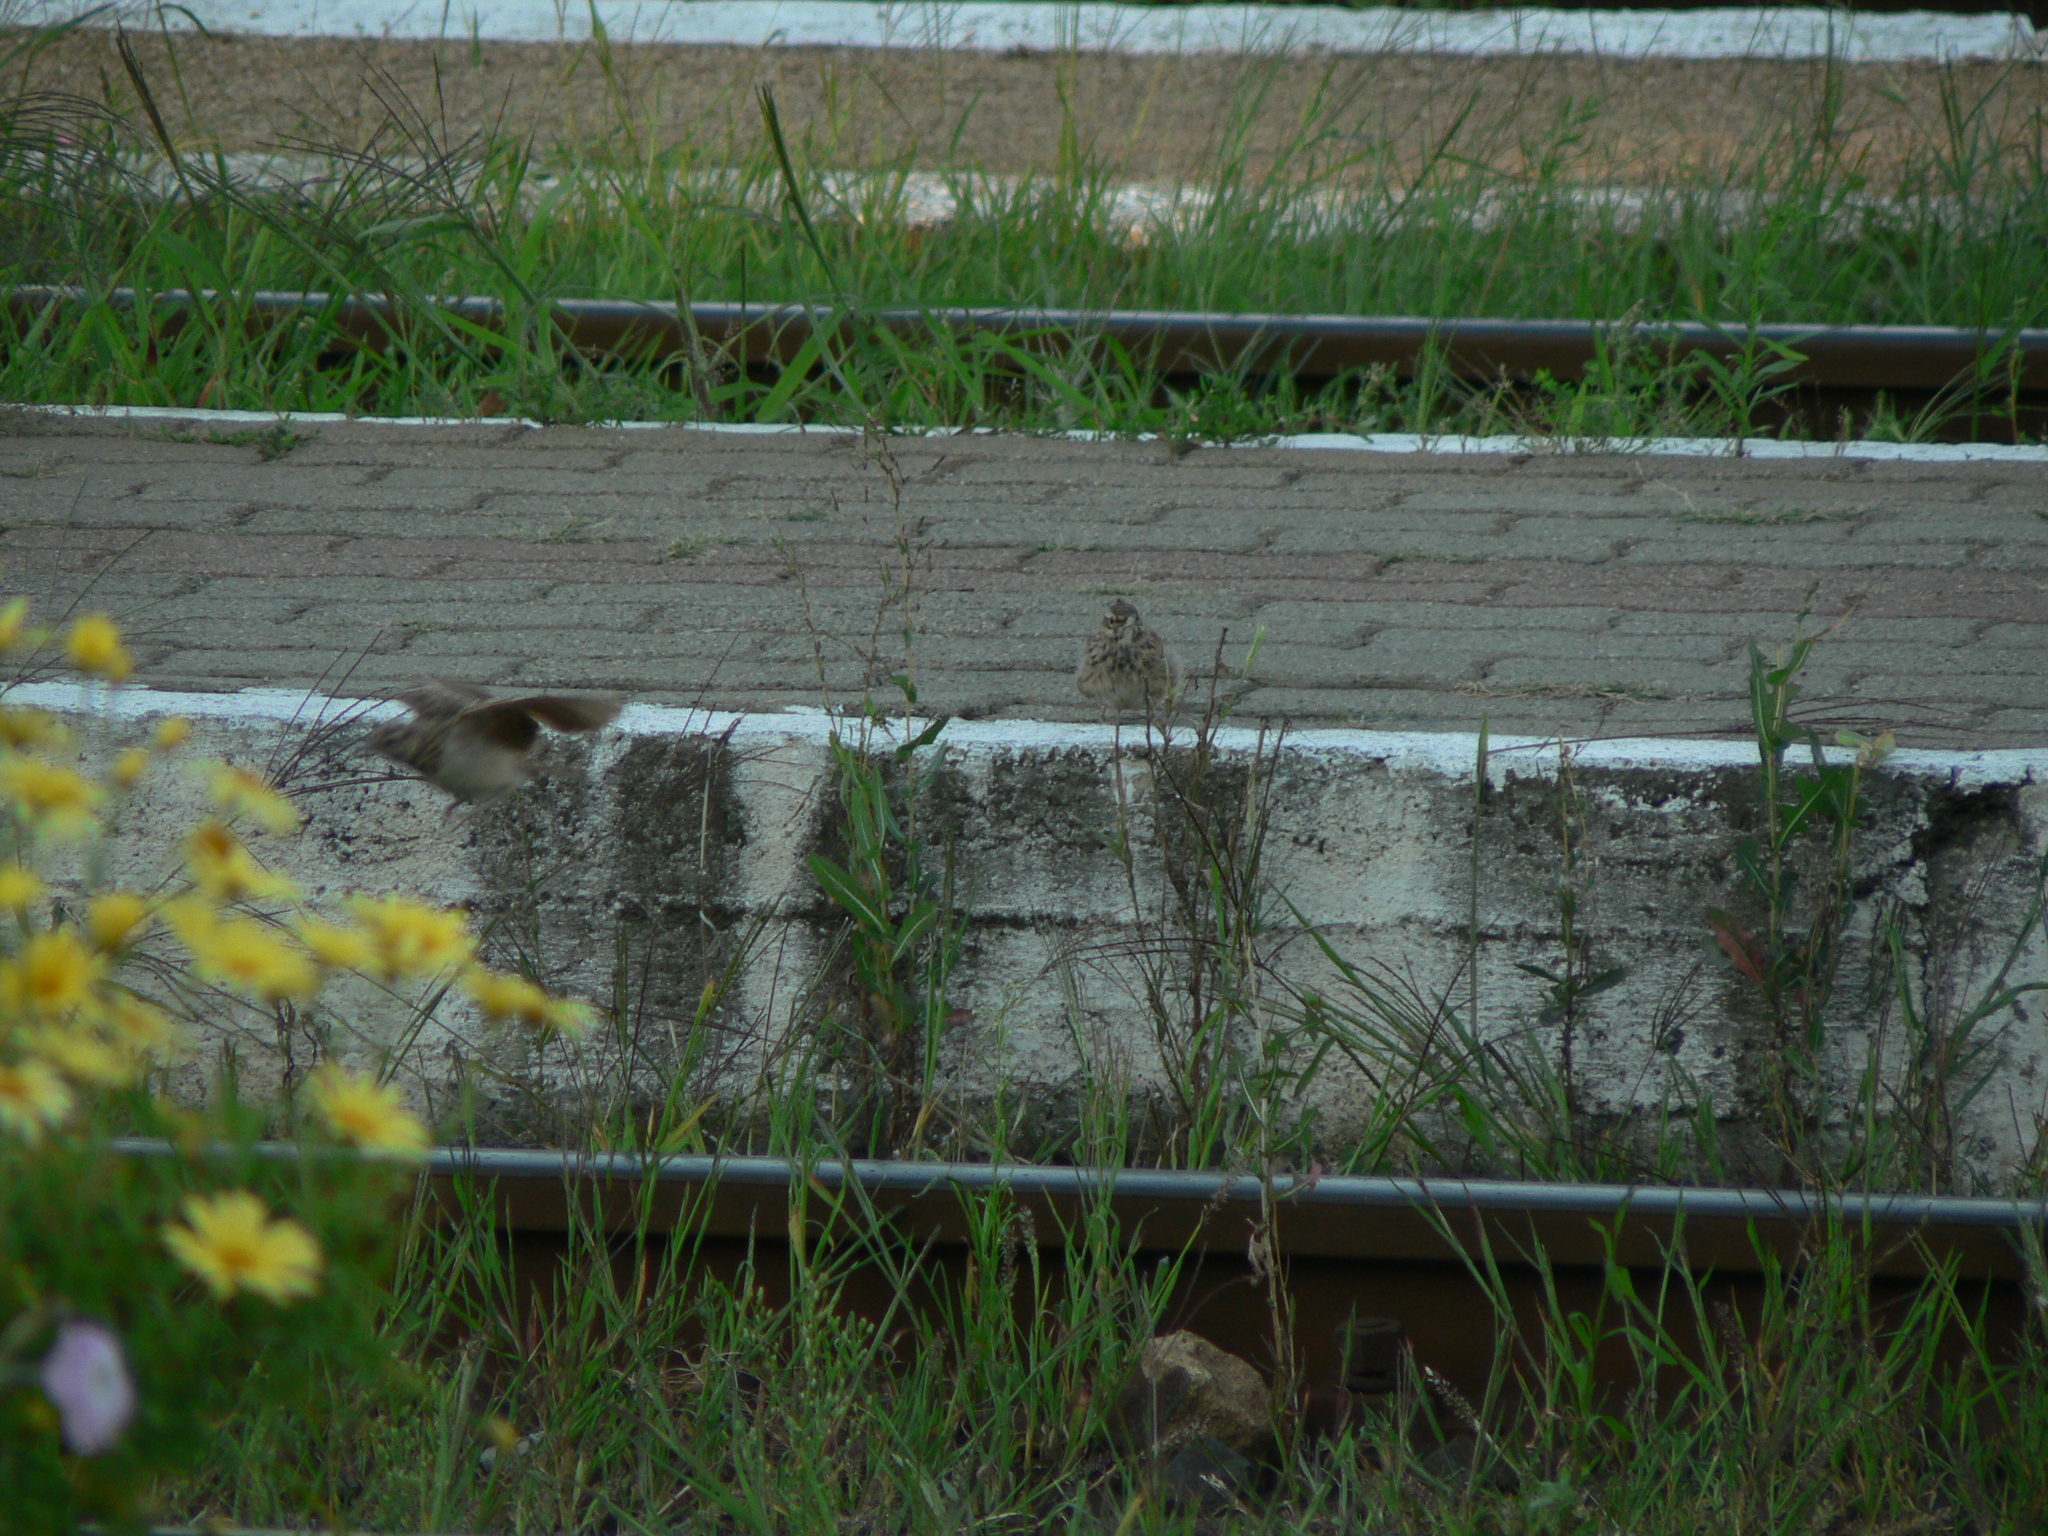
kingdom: Animalia
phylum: Chordata
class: Aves
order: Passeriformes
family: Alaudidae
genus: Galerida
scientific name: Galerida cristata
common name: Crested lark
